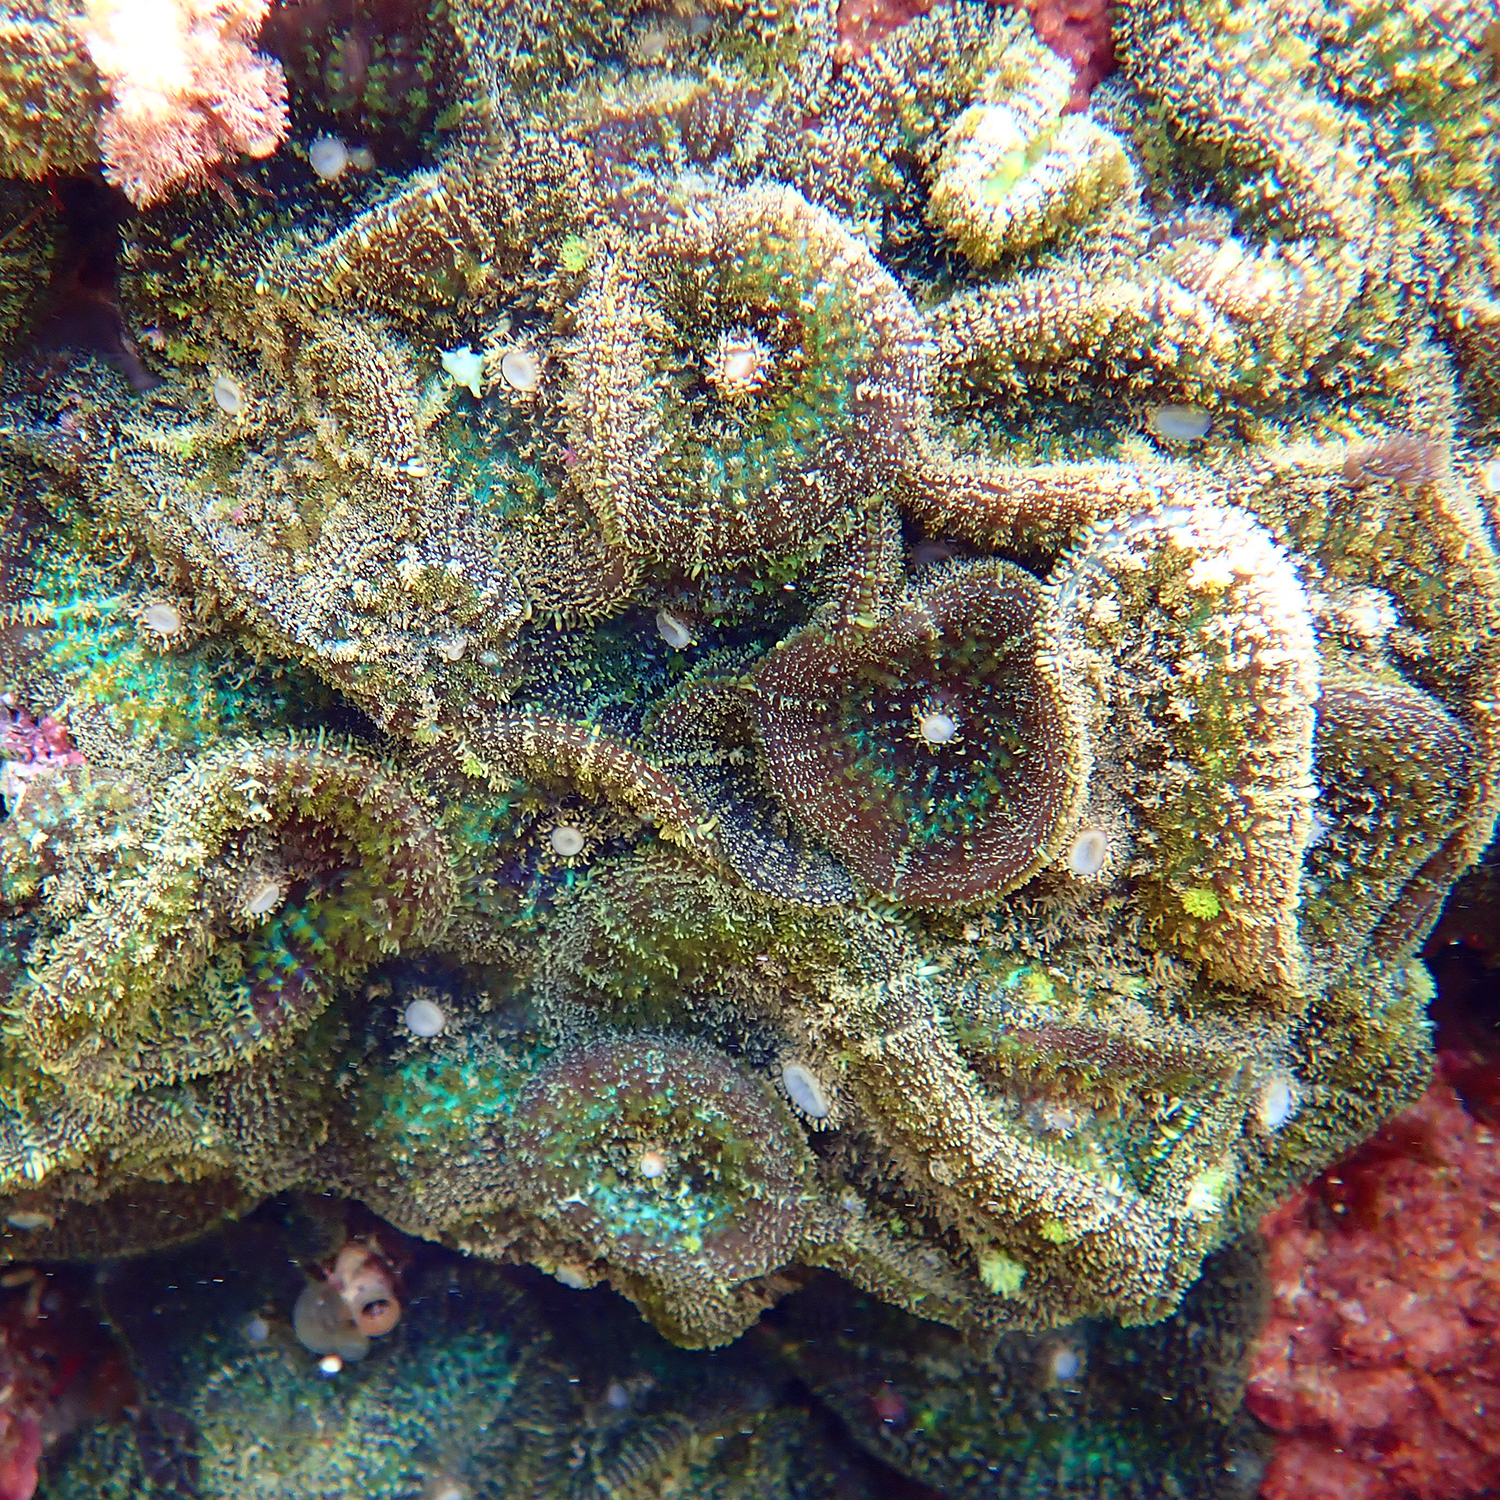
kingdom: Animalia
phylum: Cnidaria
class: Anthozoa
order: Corallimorpharia
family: Discosomidae
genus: Rhodactis
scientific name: Rhodactis bryoides
